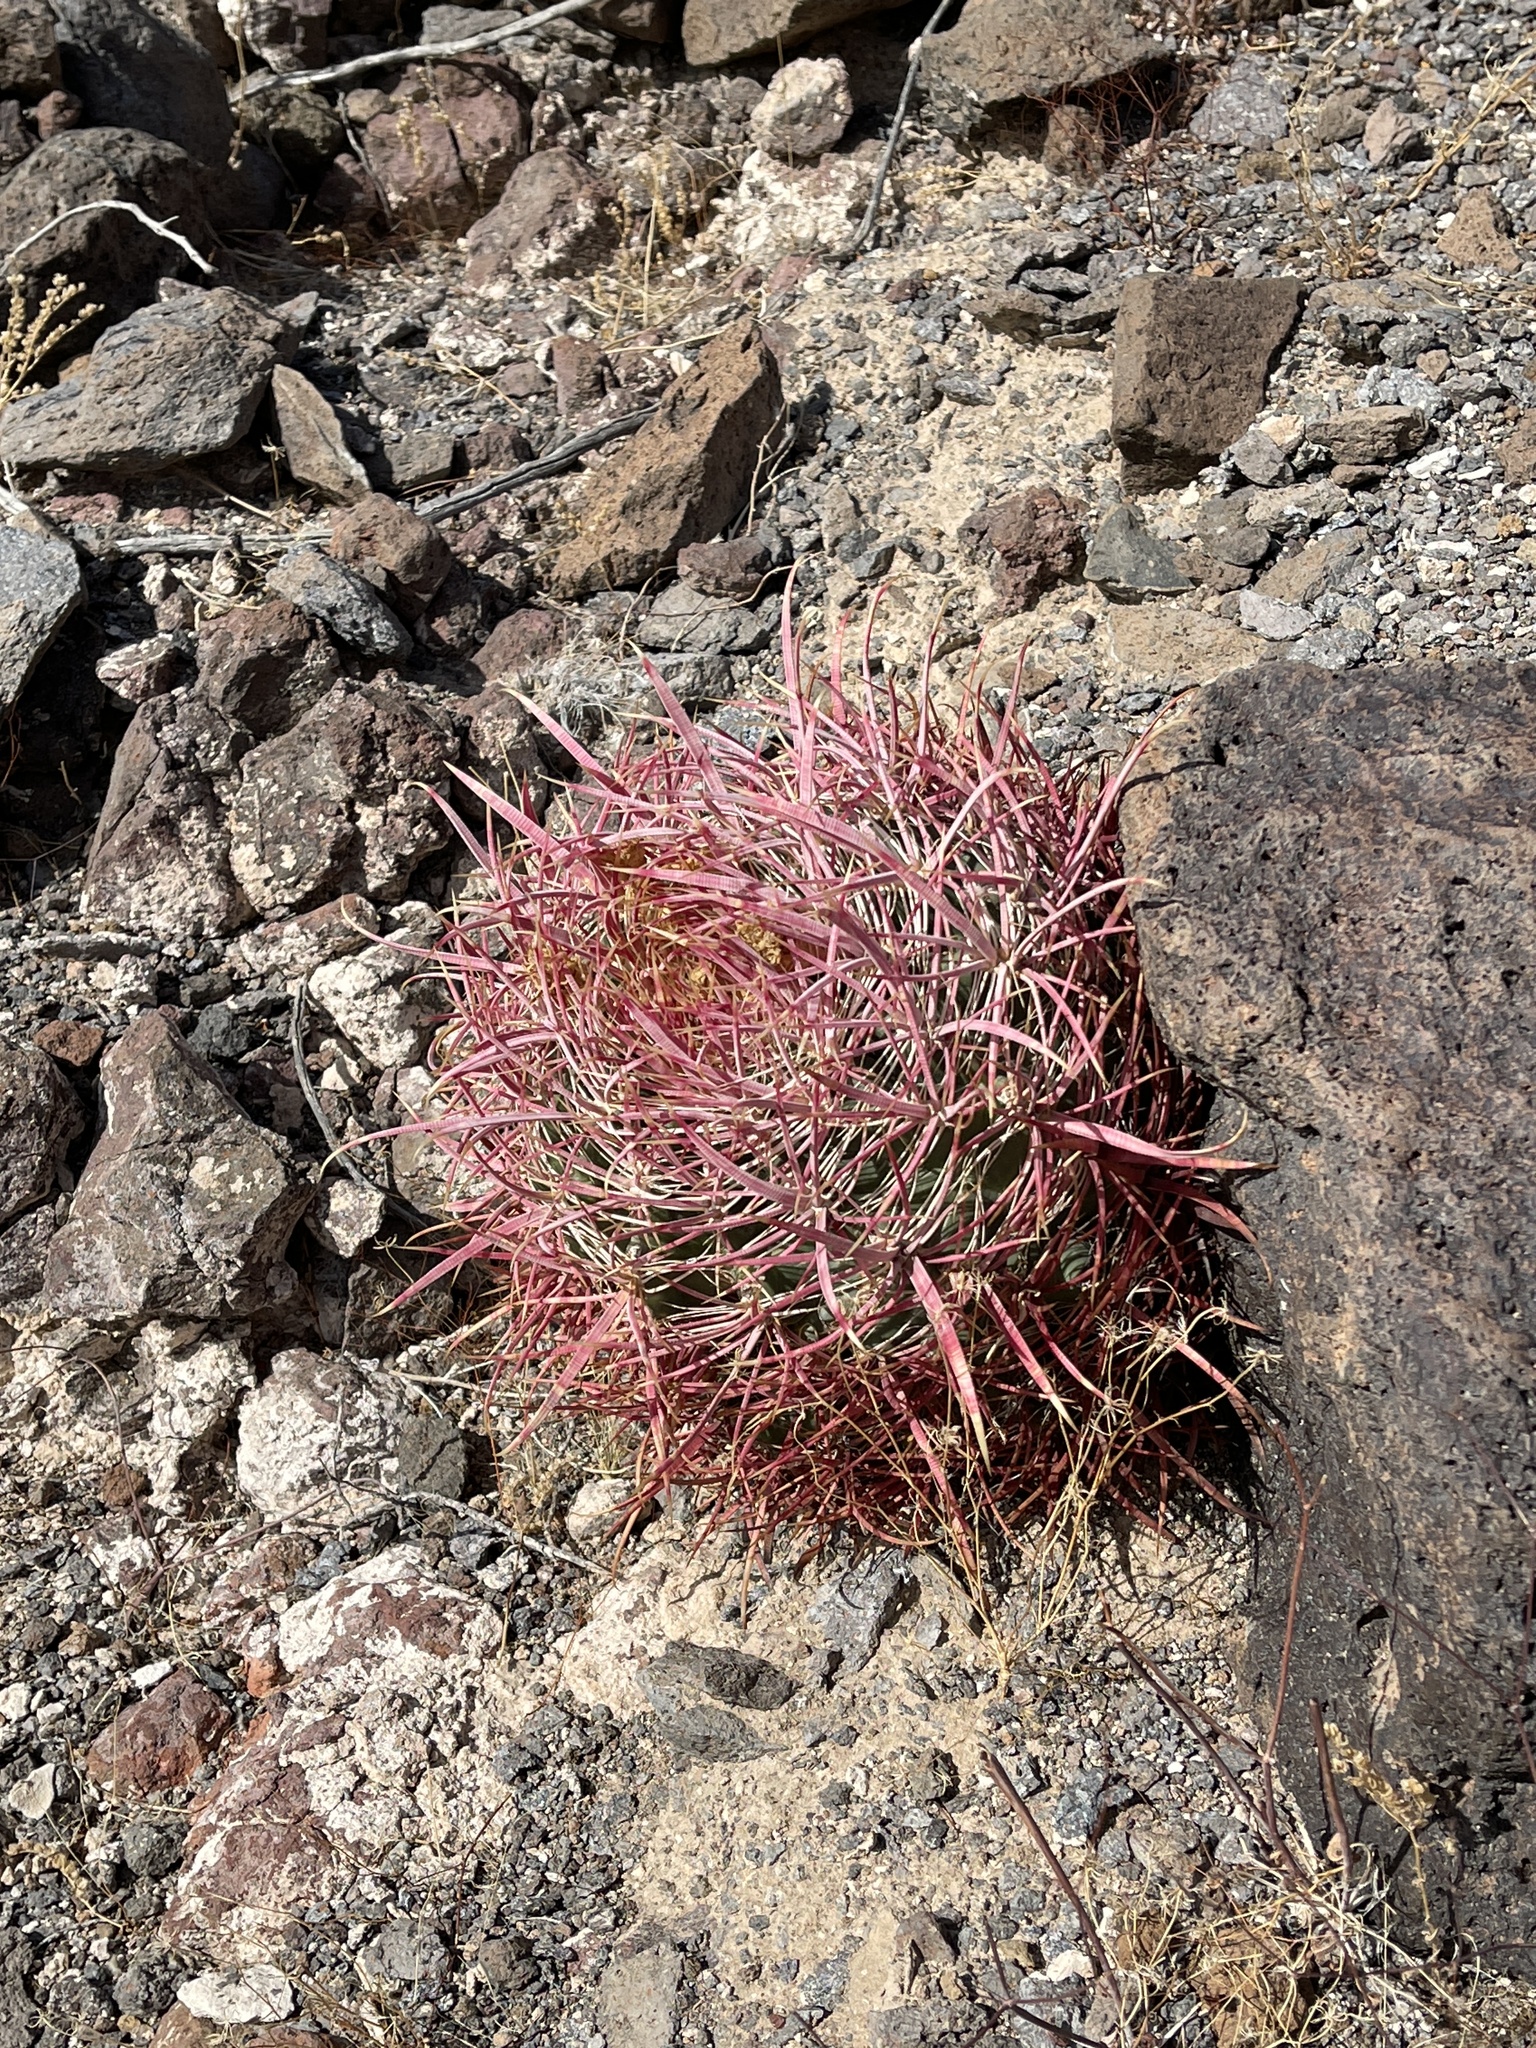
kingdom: Plantae
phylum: Tracheophyta
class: Magnoliopsida
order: Caryophyllales
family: Cactaceae
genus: Ferocactus
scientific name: Ferocactus cylindraceus
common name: California barrel cactus
